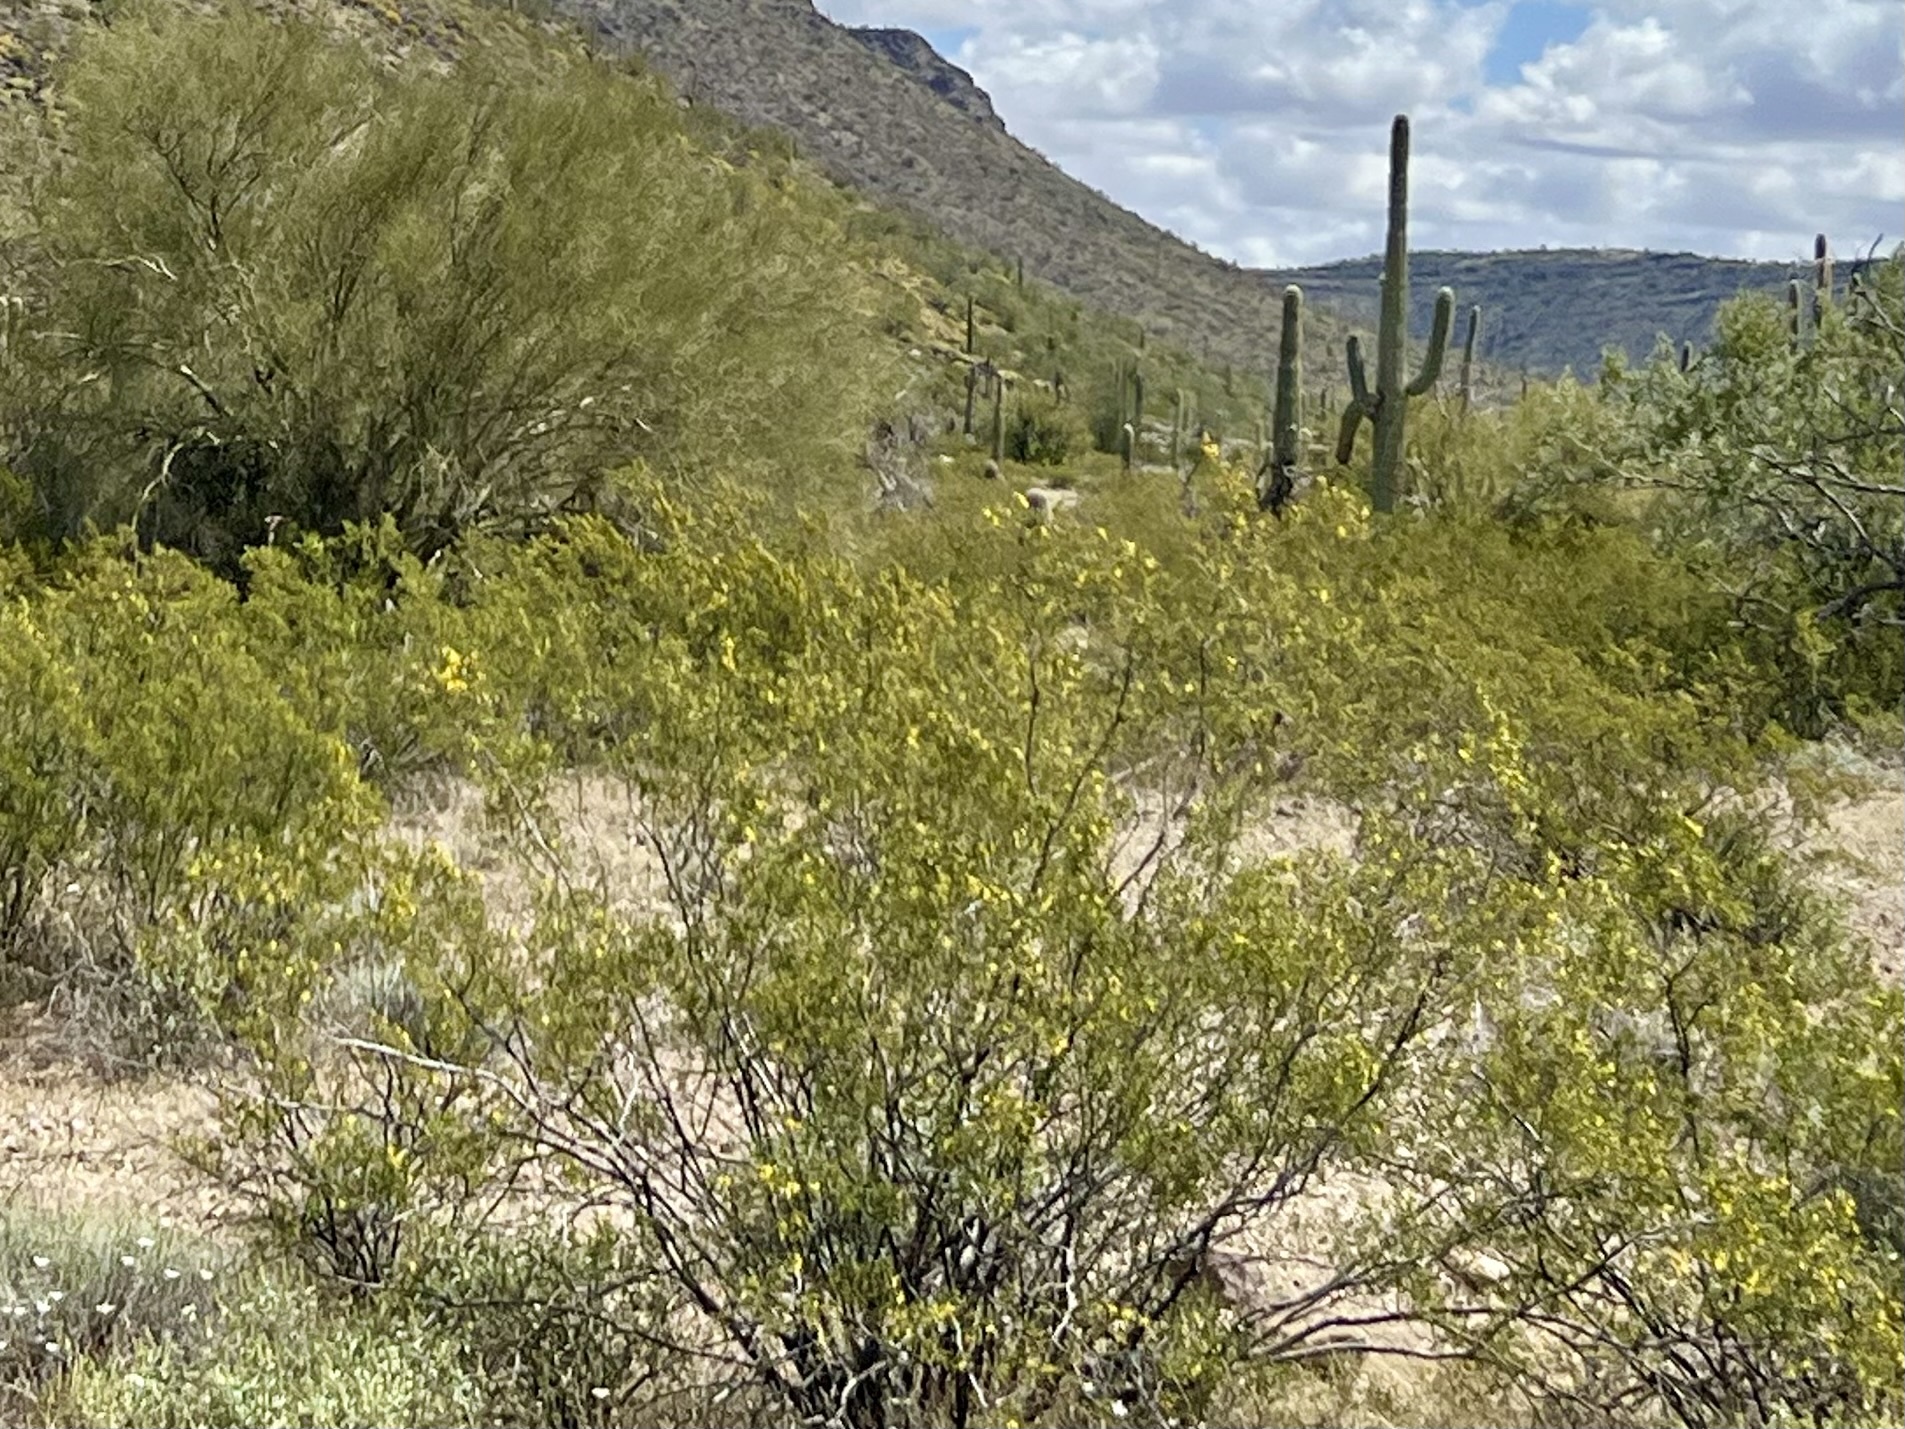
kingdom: Plantae
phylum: Tracheophyta
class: Magnoliopsida
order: Zygophyllales
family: Zygophyllaceae
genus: Larrea
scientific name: Larrea tridentata
